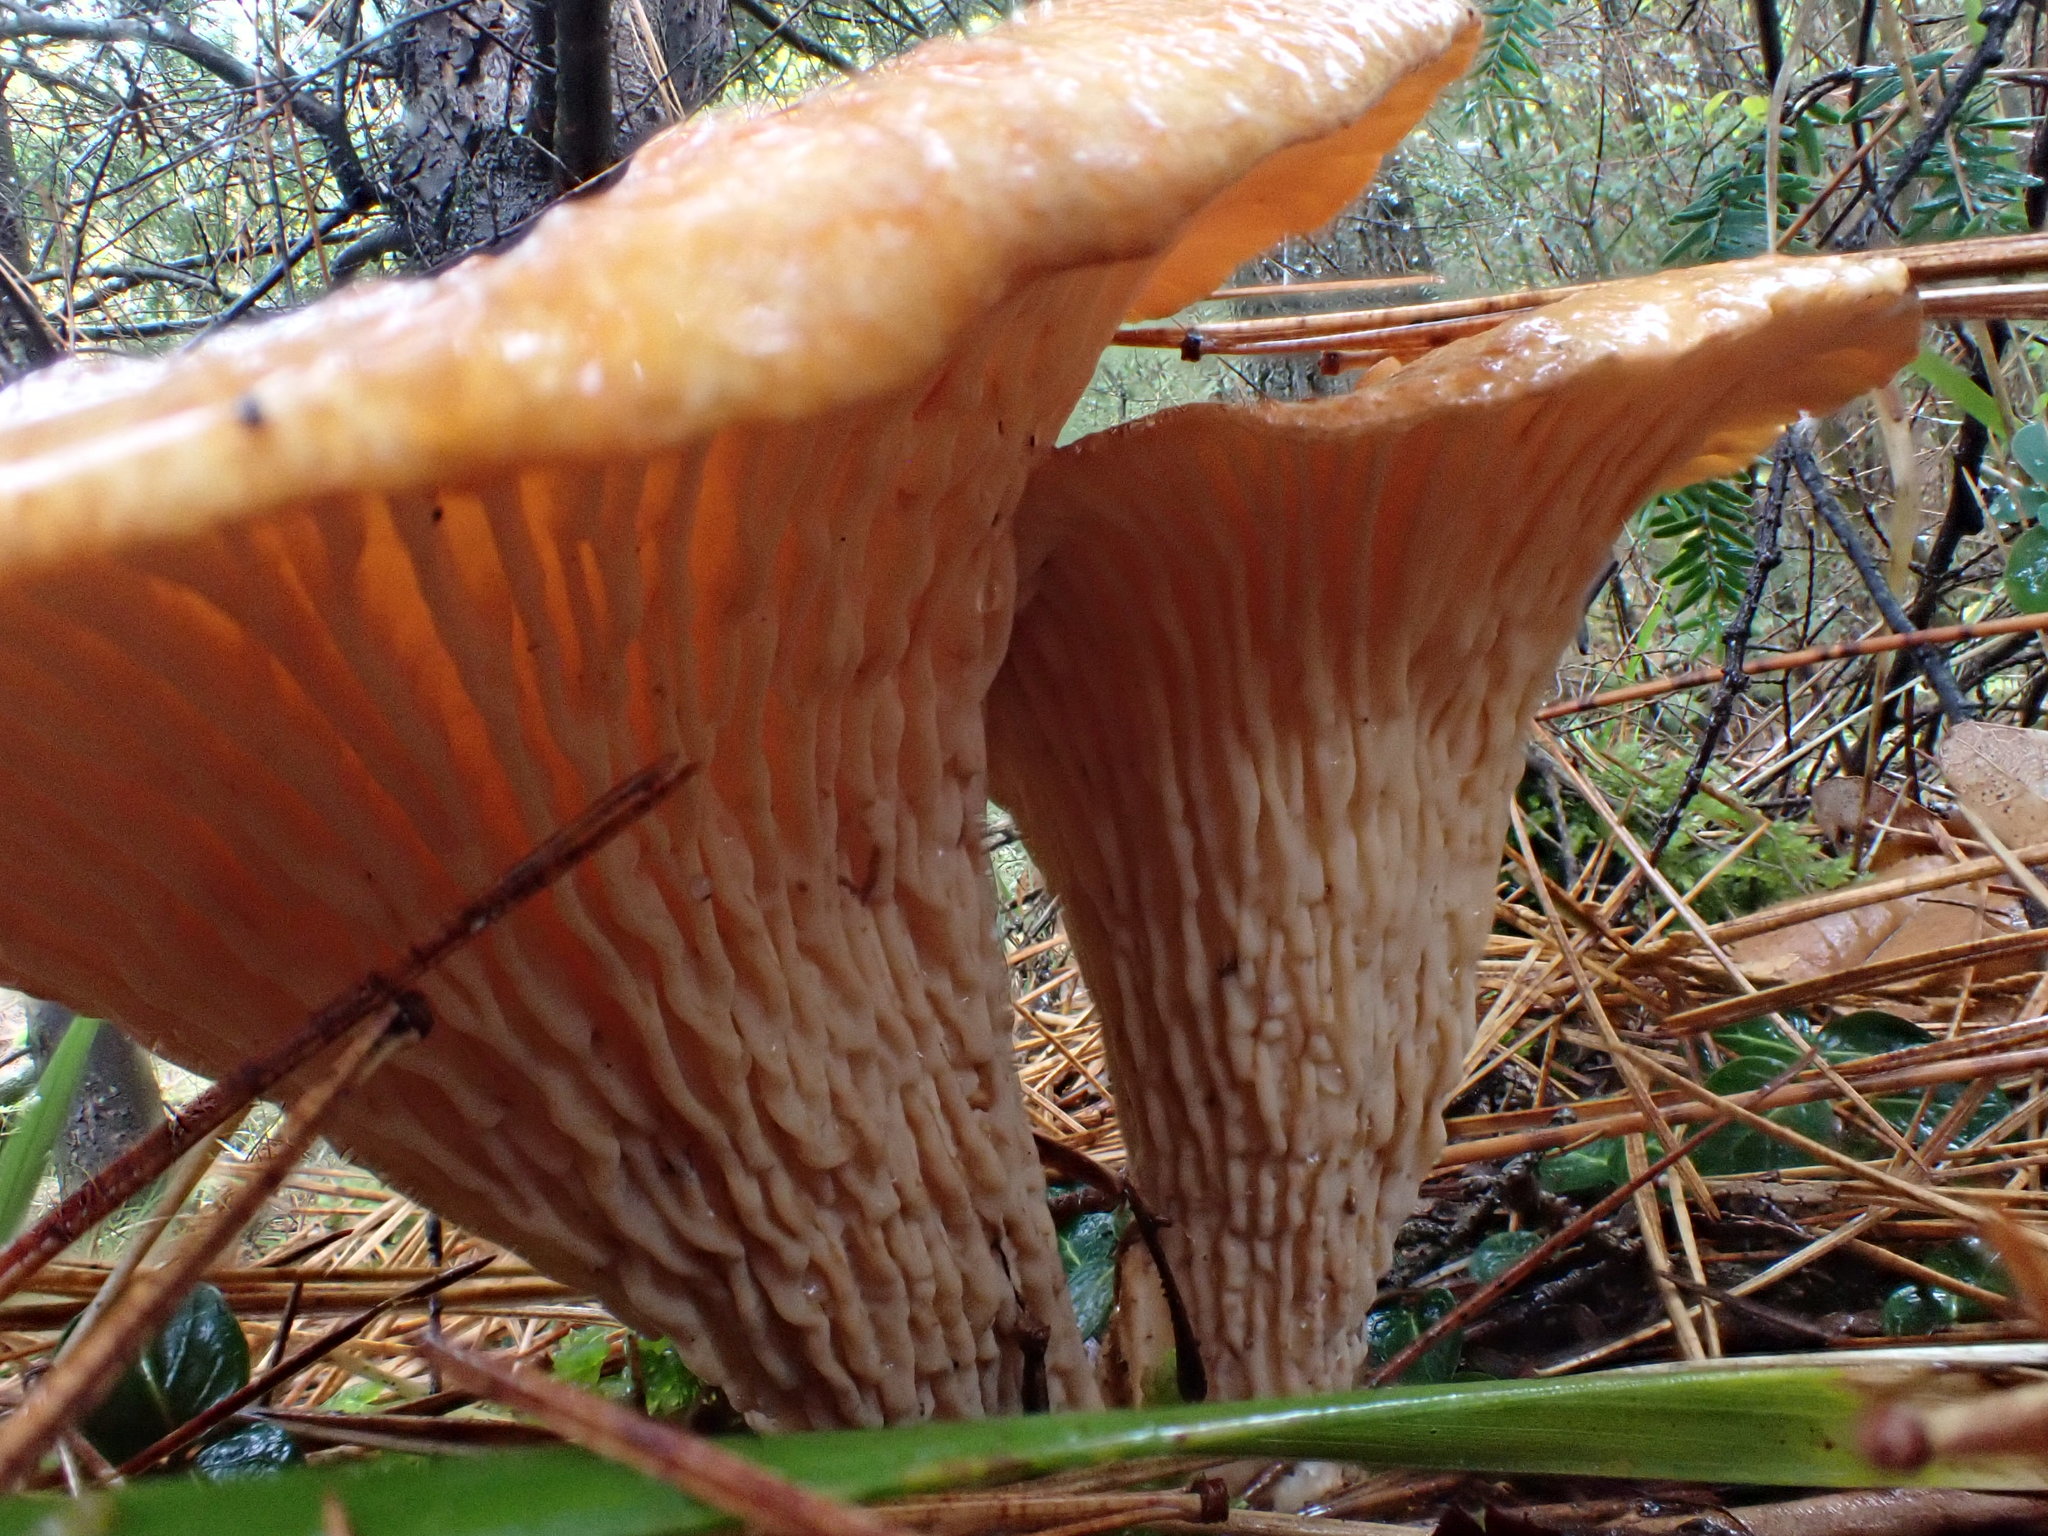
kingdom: Fungi
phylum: Basidiomycota
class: Agaricomycetes
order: Gomphales
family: Gomphaceae
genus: Turbinellus
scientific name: Turbinellus floccosus
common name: Scaly chanterelle
